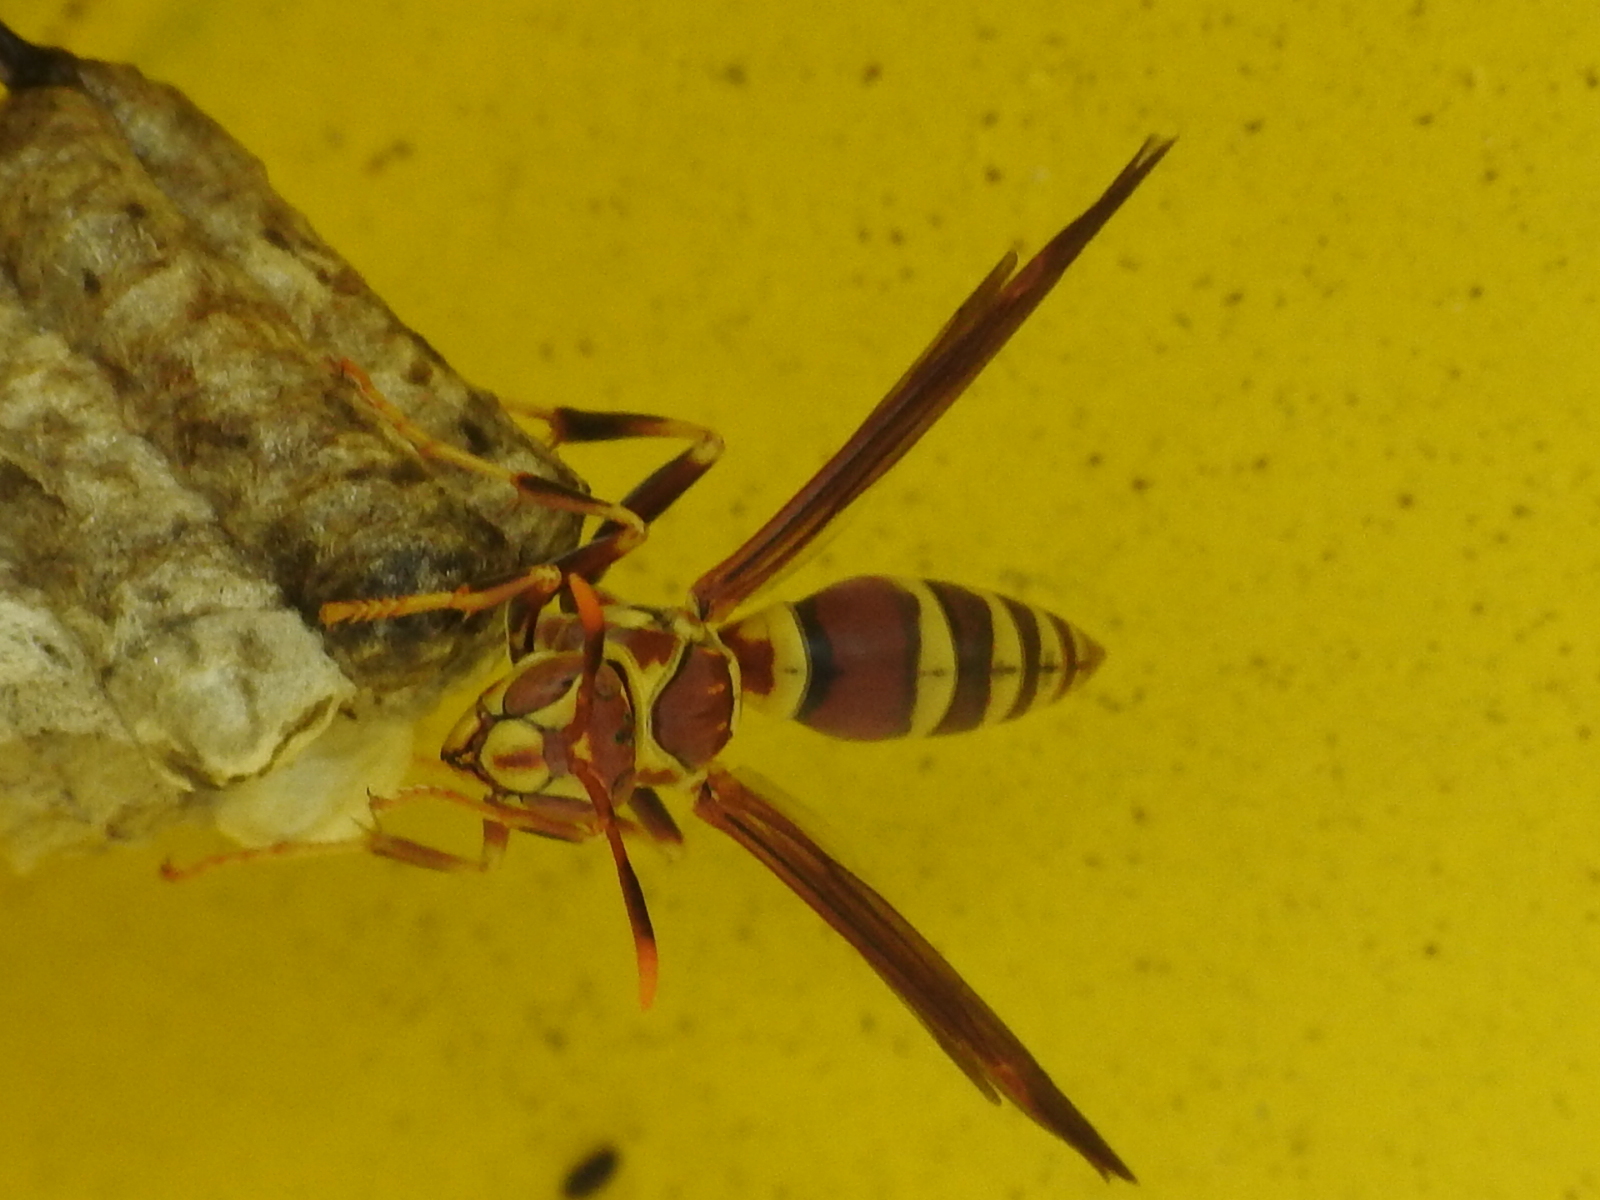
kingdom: Animalia
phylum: Arthropoda
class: Insecta
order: Hymenoptera
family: Eumenidae
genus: Polistes
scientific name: Polistes exclamans
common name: Paper wasp
